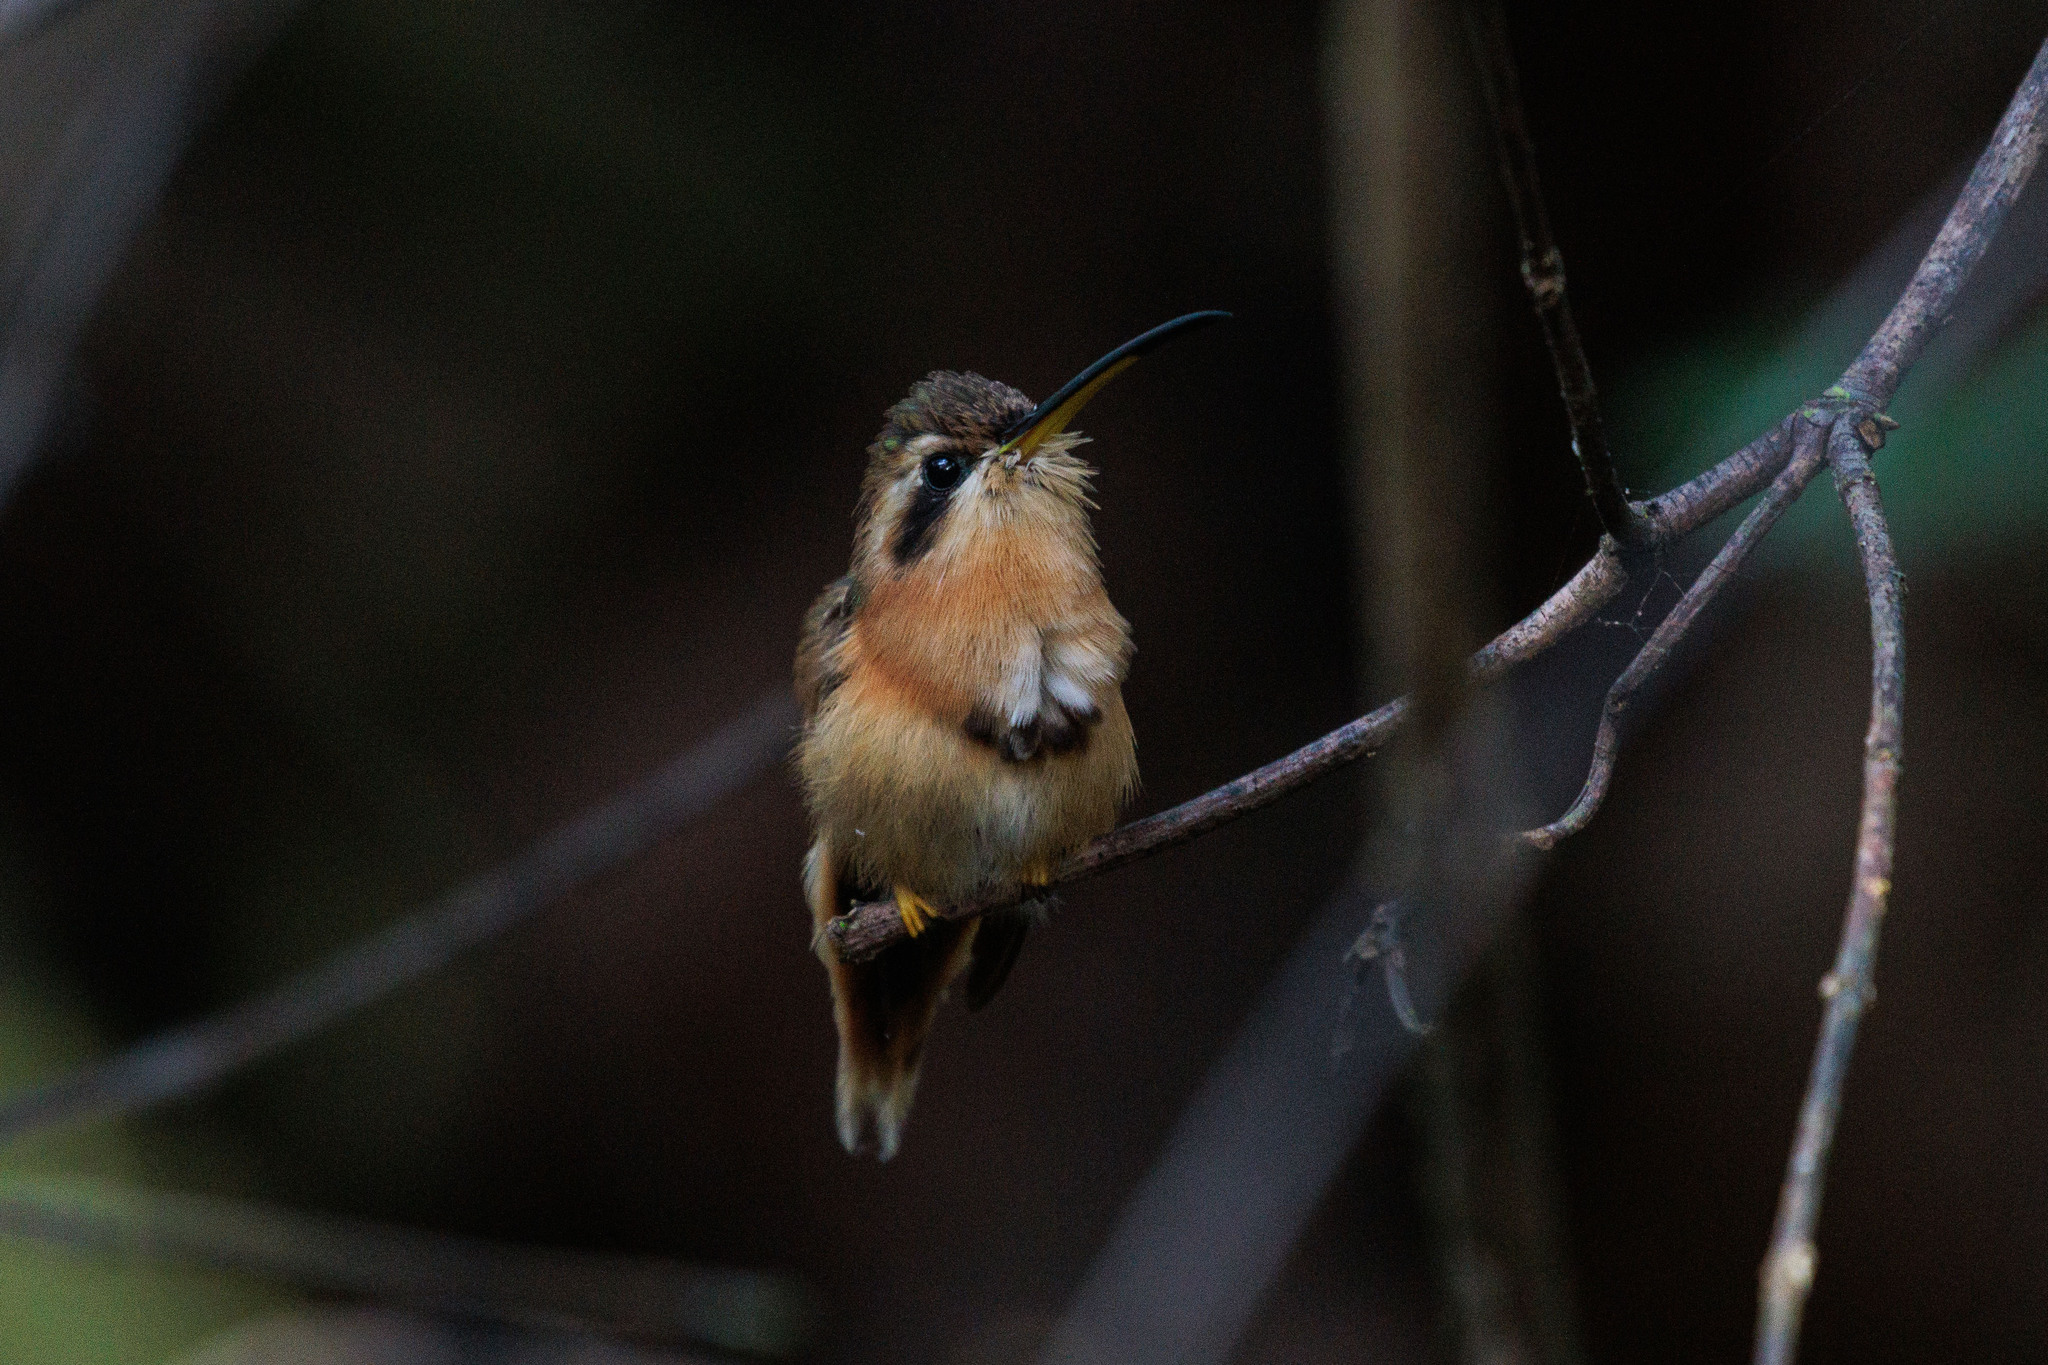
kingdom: Animalia
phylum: Chordata
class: Aves
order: Apodiformes
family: Trochilidae
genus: Phaethornis
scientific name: Phaethornis ruber
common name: Reddish hermit
